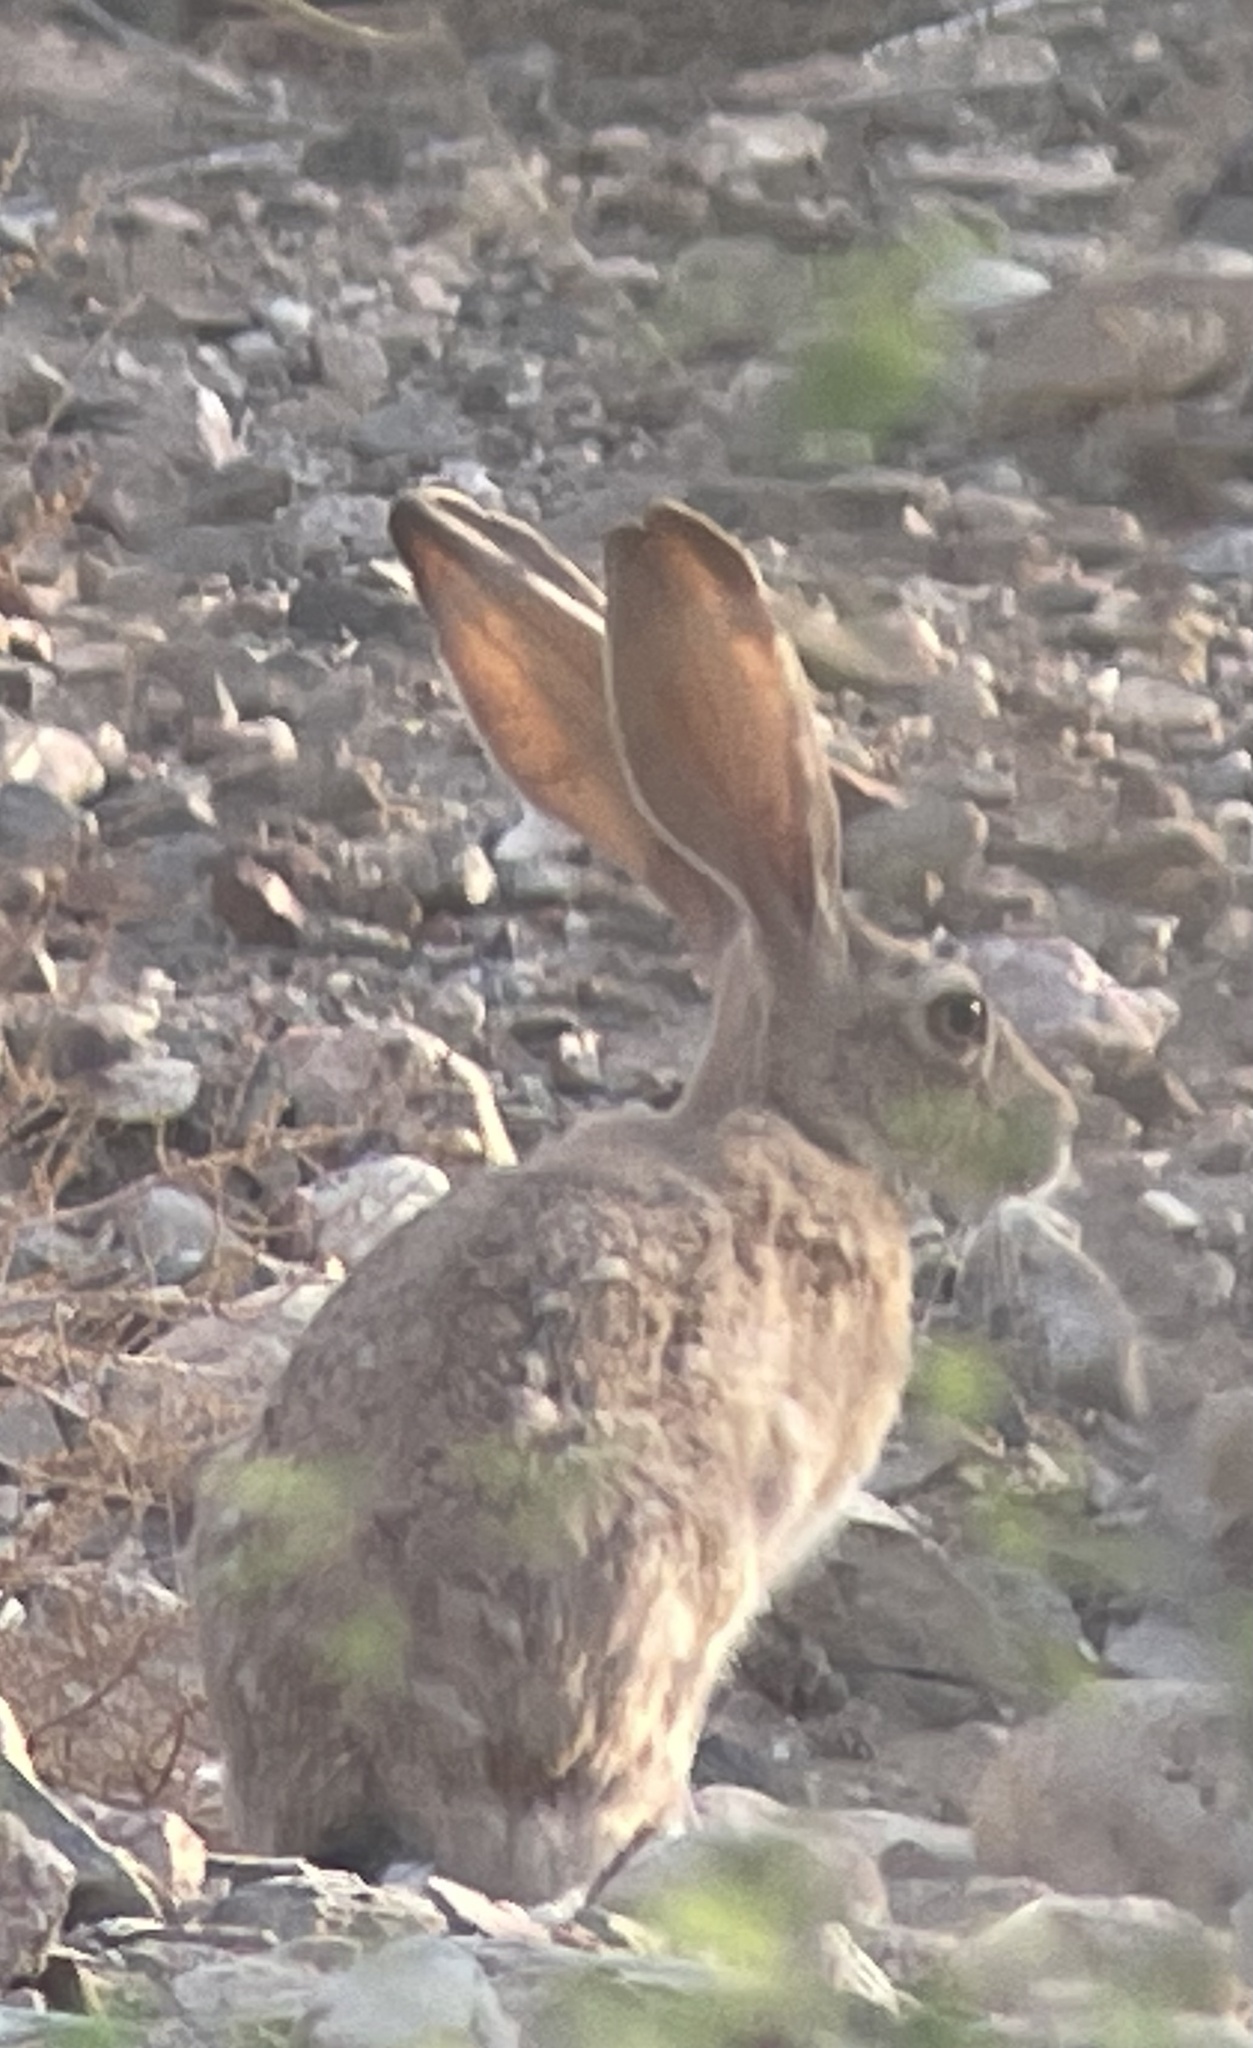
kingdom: Animalia
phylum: Chordata
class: Mammalia
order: Lagomorpha
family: Leporidae
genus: Lepus
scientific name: Lepus capensis
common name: Cape hare
